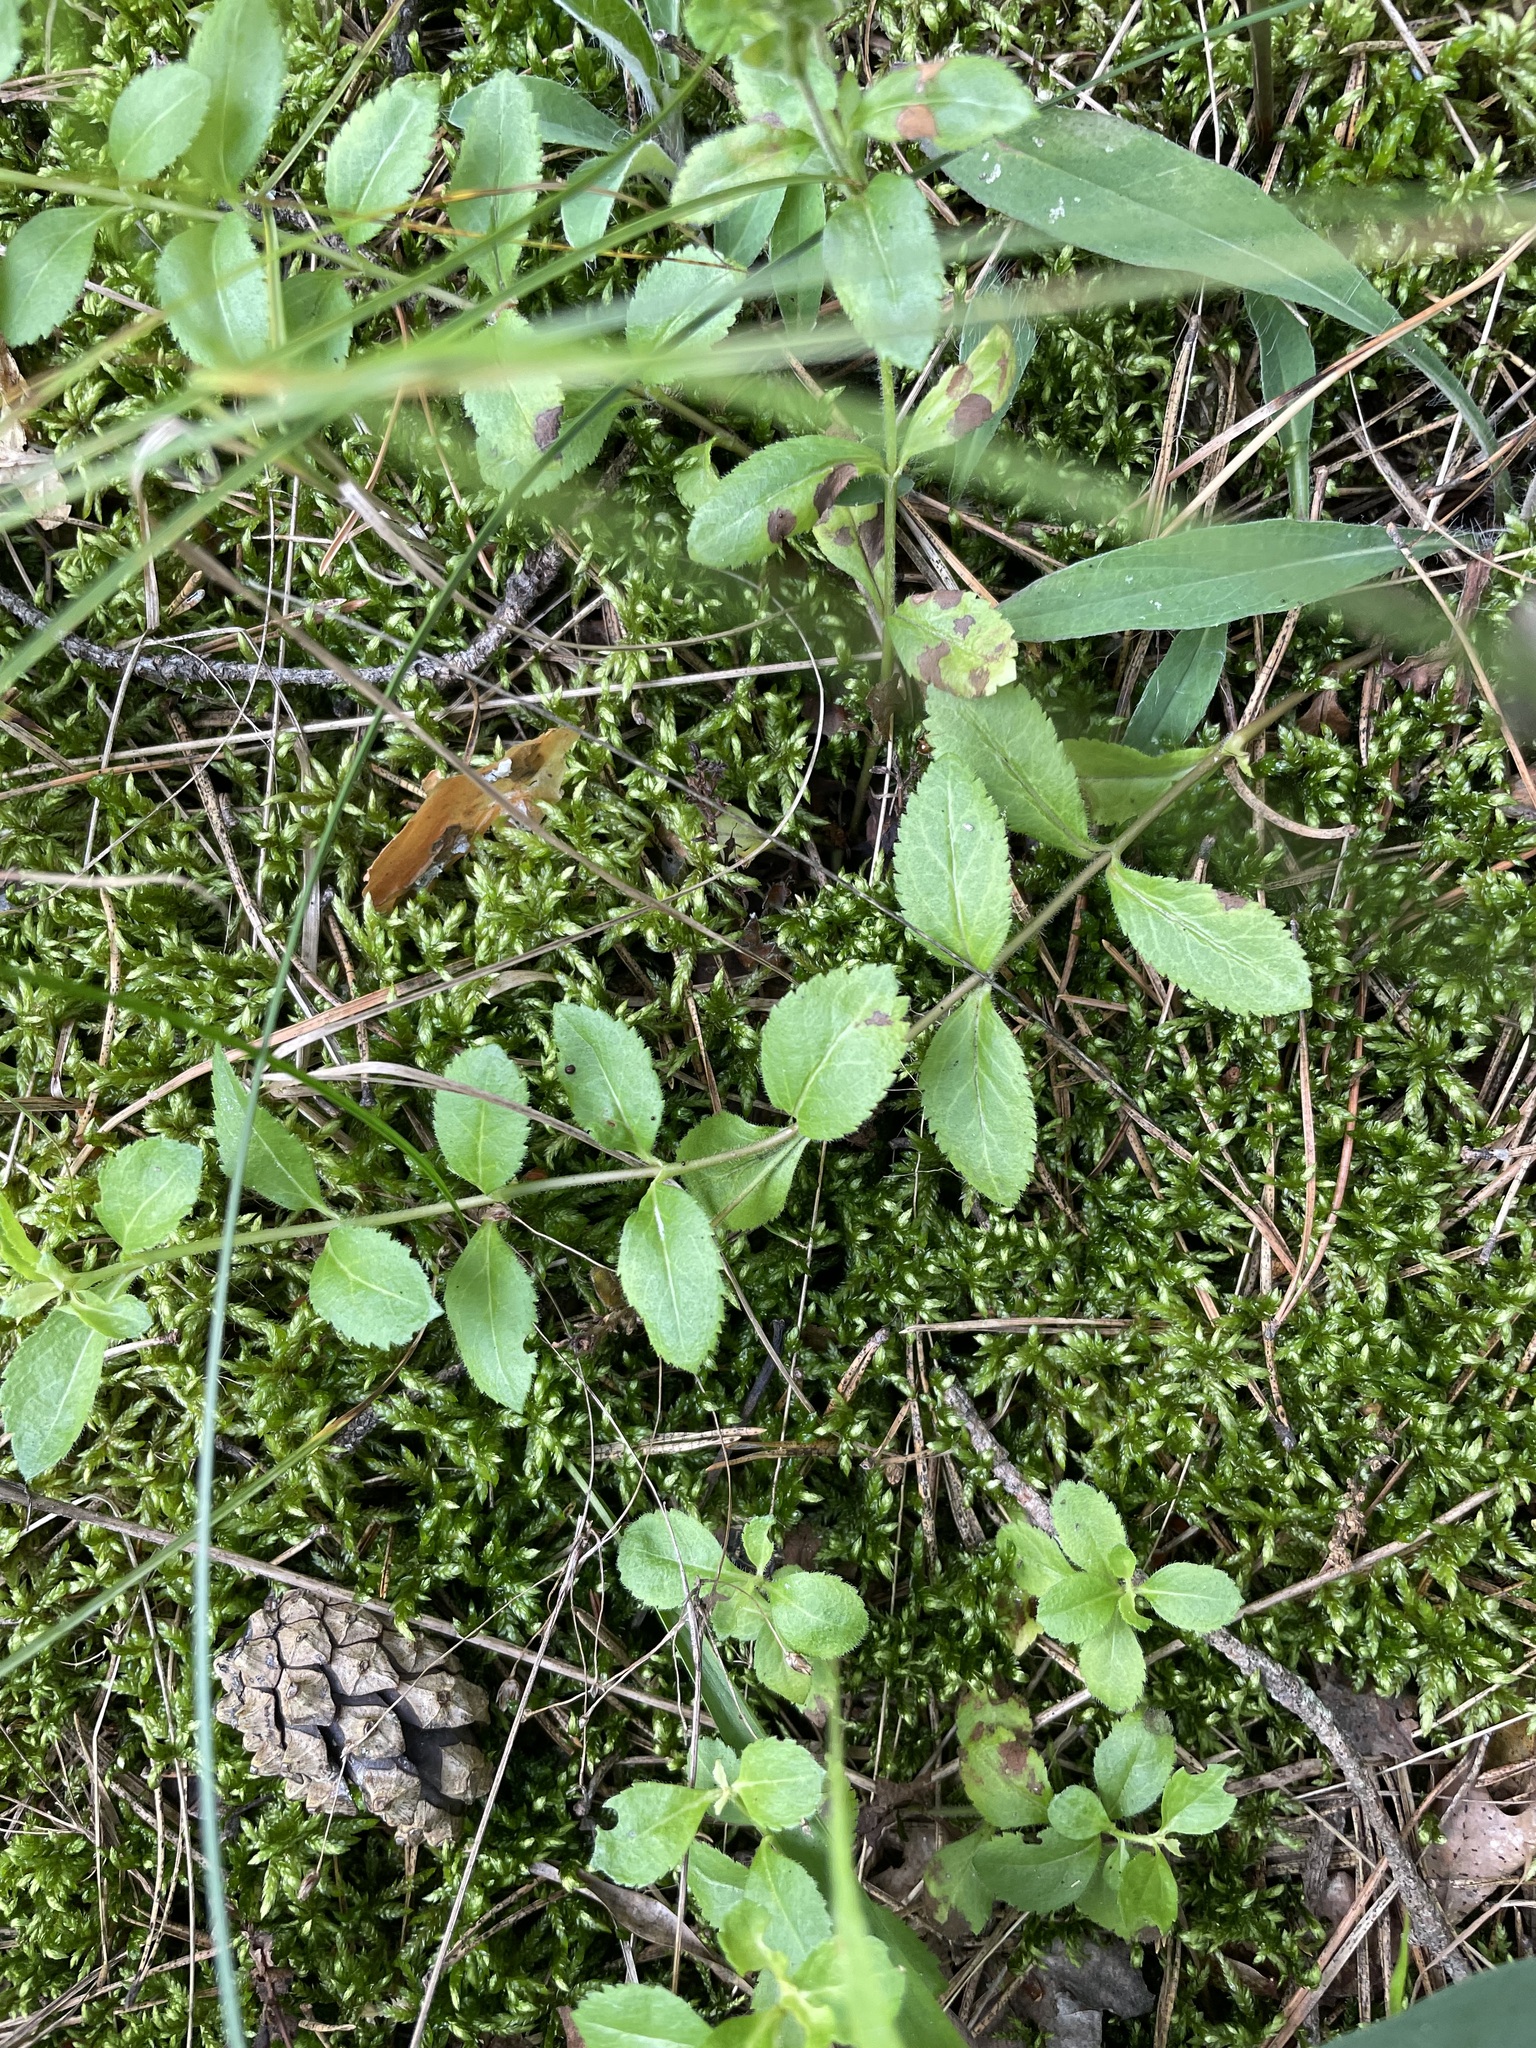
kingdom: Plantae
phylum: Tracheophyta
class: Magnoliopsida
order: Lamiales
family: Plantaginaceae
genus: Veronica
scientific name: Veronica officinalis
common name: Common speedwell
